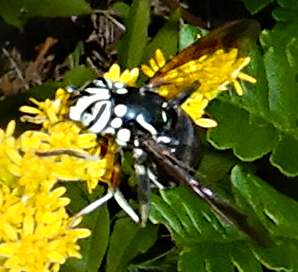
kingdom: Animalia
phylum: Arthropoda
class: Insecta
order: Diptera
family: Syrphidae
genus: Spilomyia
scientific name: Spilomyia fusca
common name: Bald-faced hornet fly
